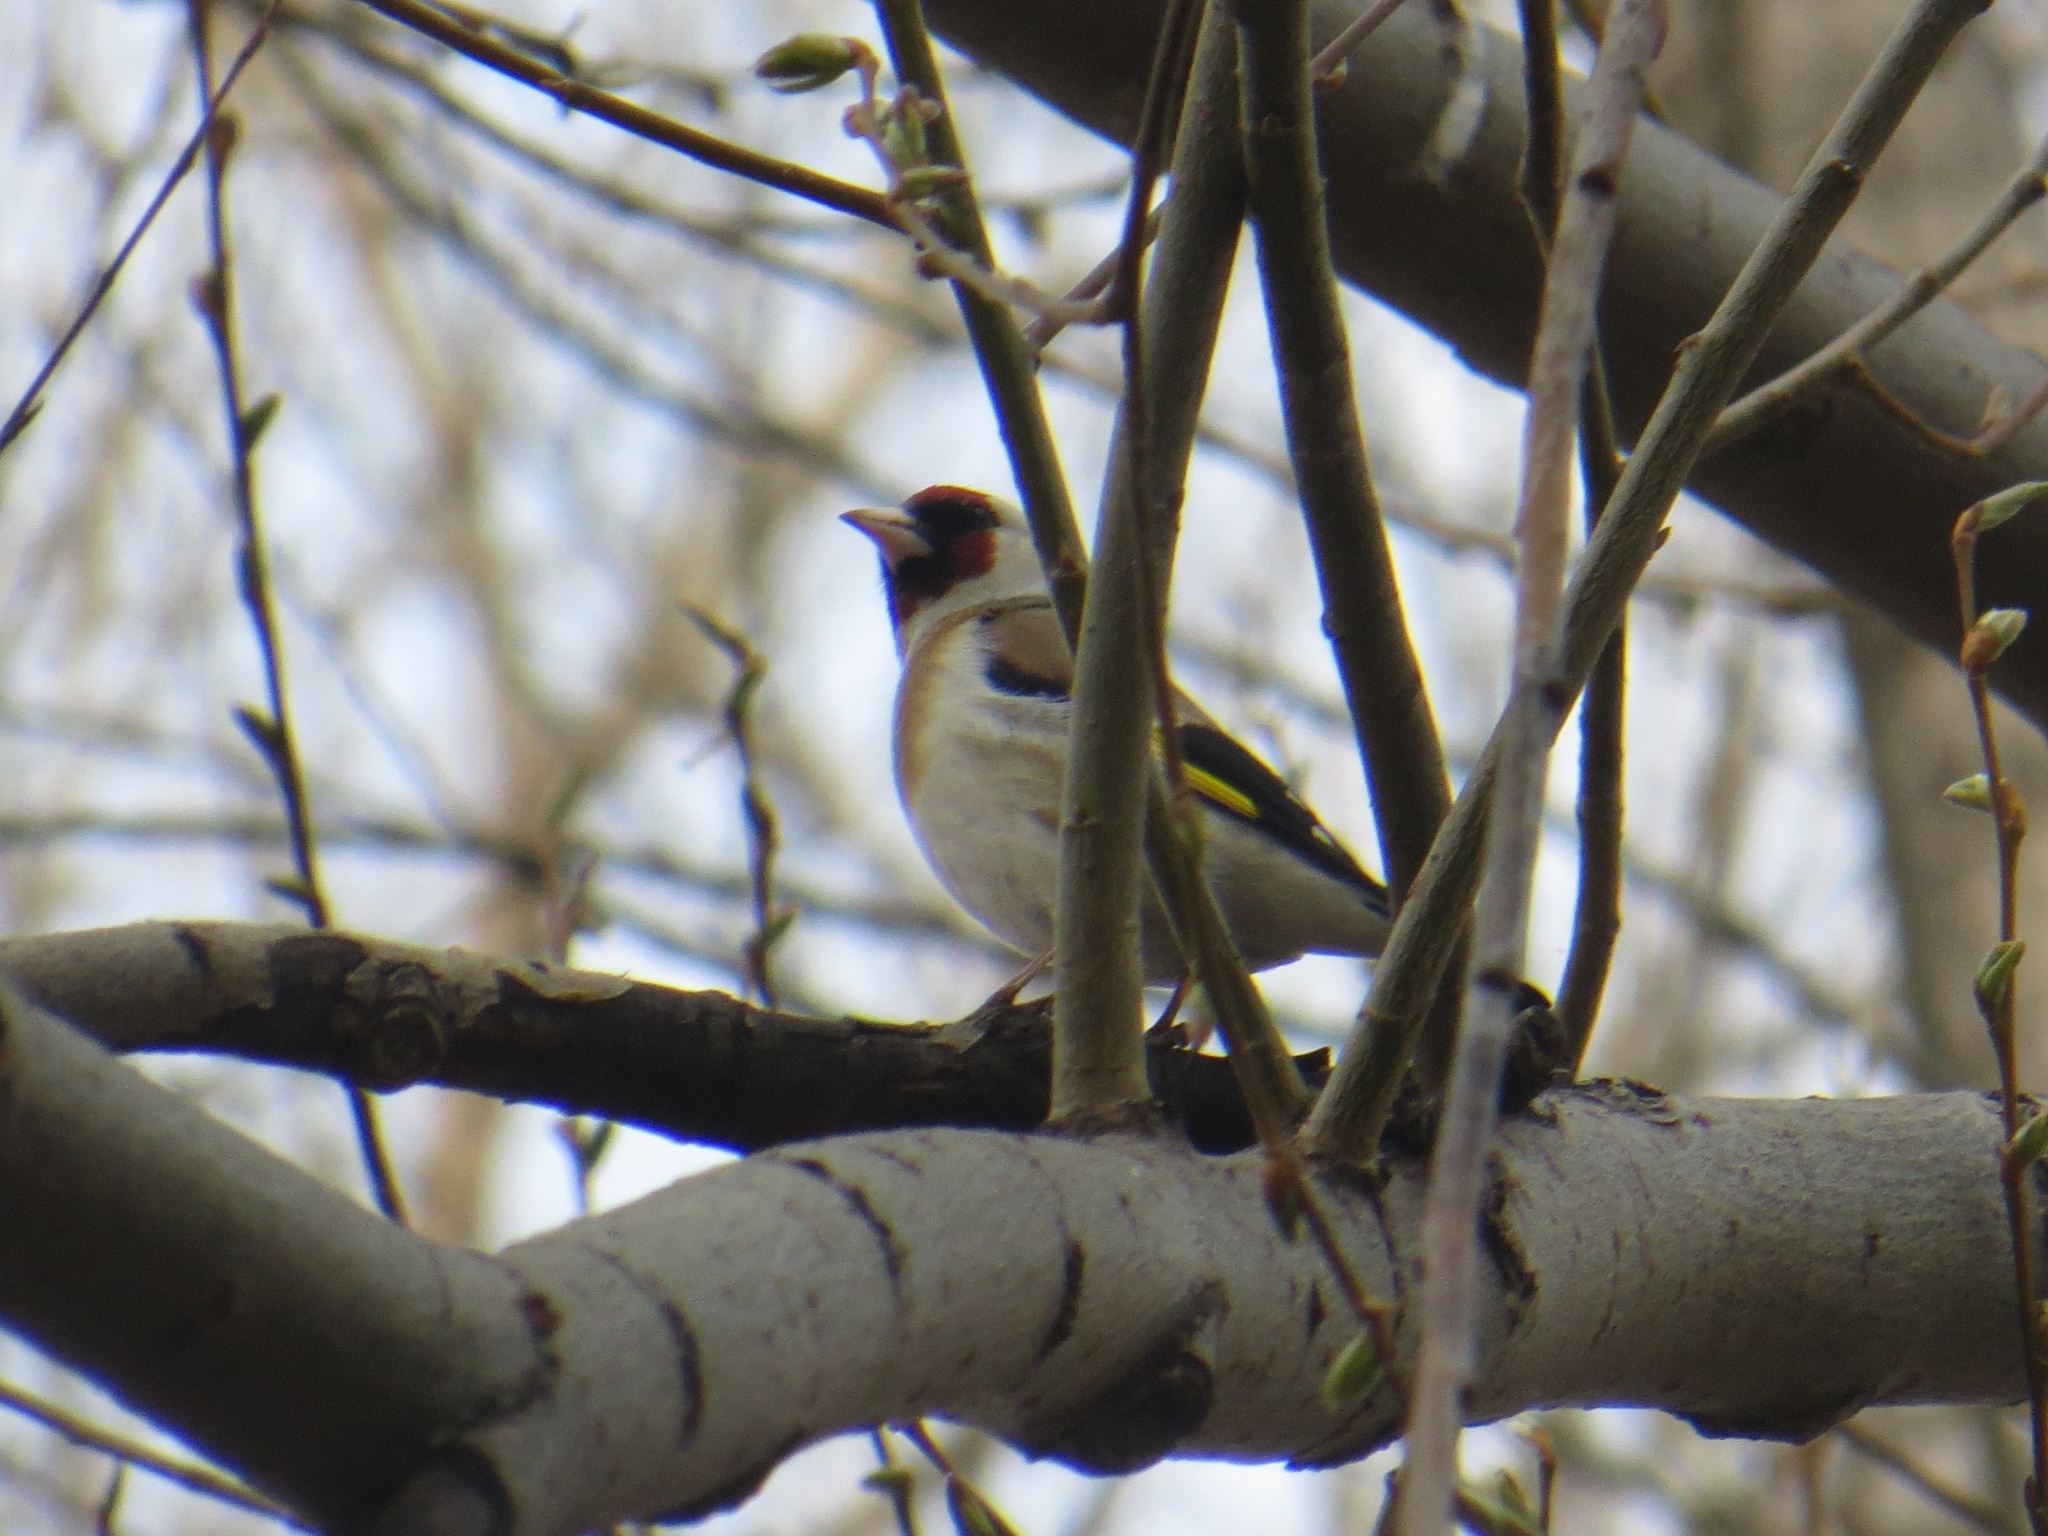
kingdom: Animalia
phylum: Chordata
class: Aves
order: Passeriformes
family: Fringillidae
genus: Carduelis
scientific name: Carduelis carduelis
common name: European goldfinch
